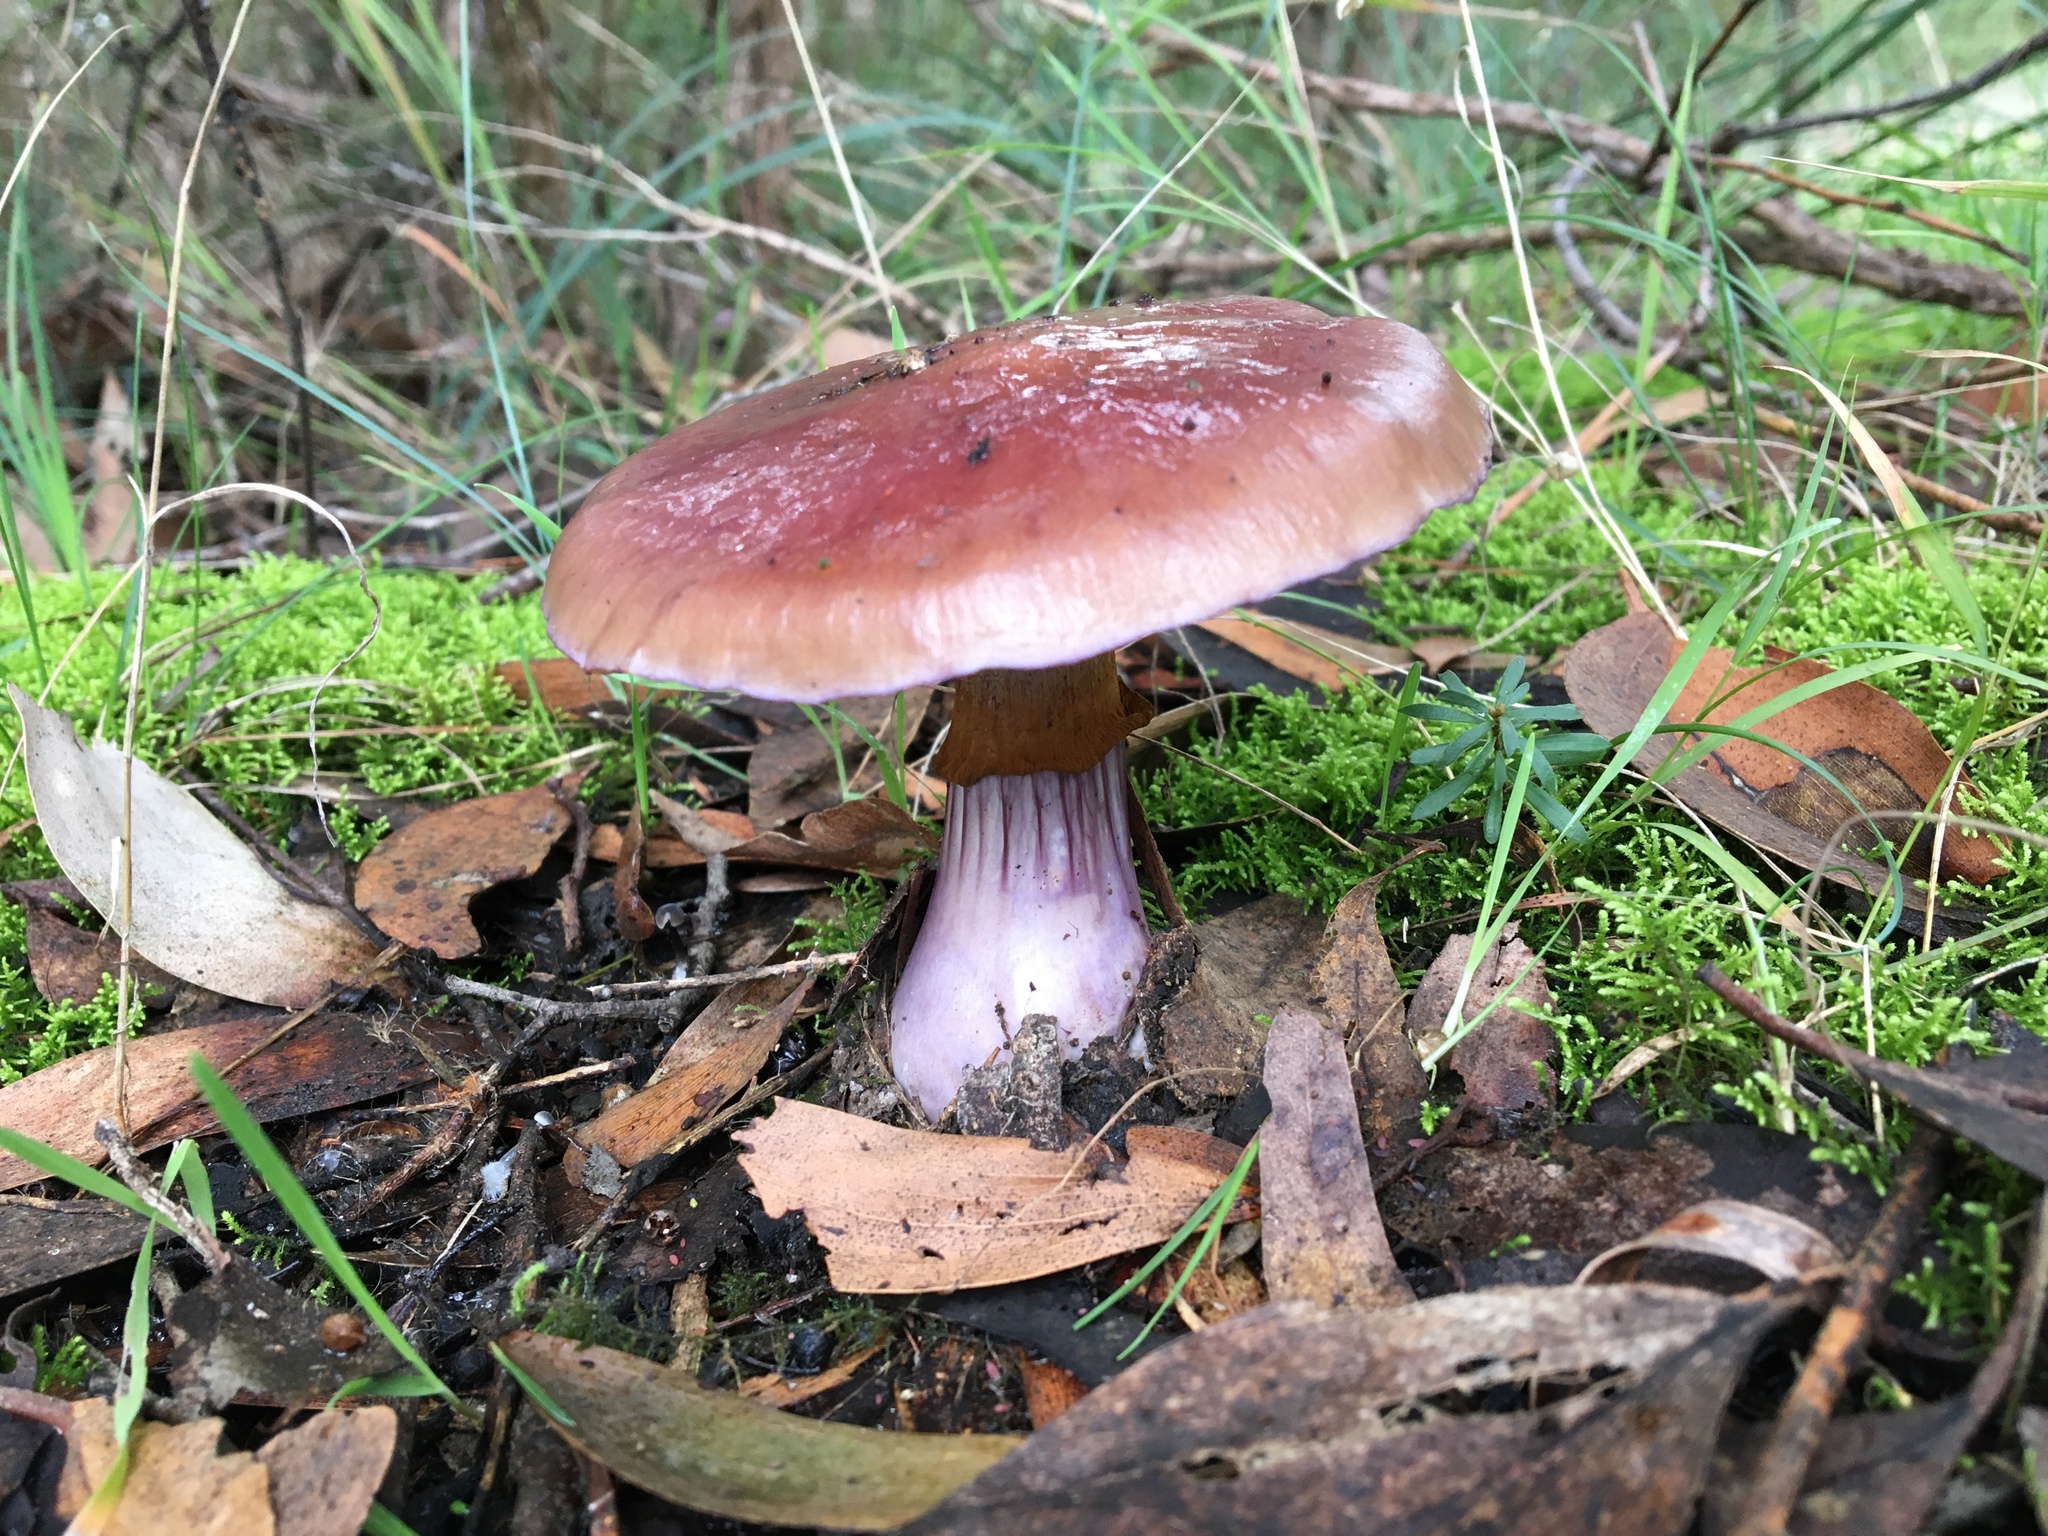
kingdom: Fungi
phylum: Basidiomycota
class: Agaricomycetes
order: Agaricales
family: Cortinariaceae
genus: Cortinarius
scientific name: Cortinarius archeri
